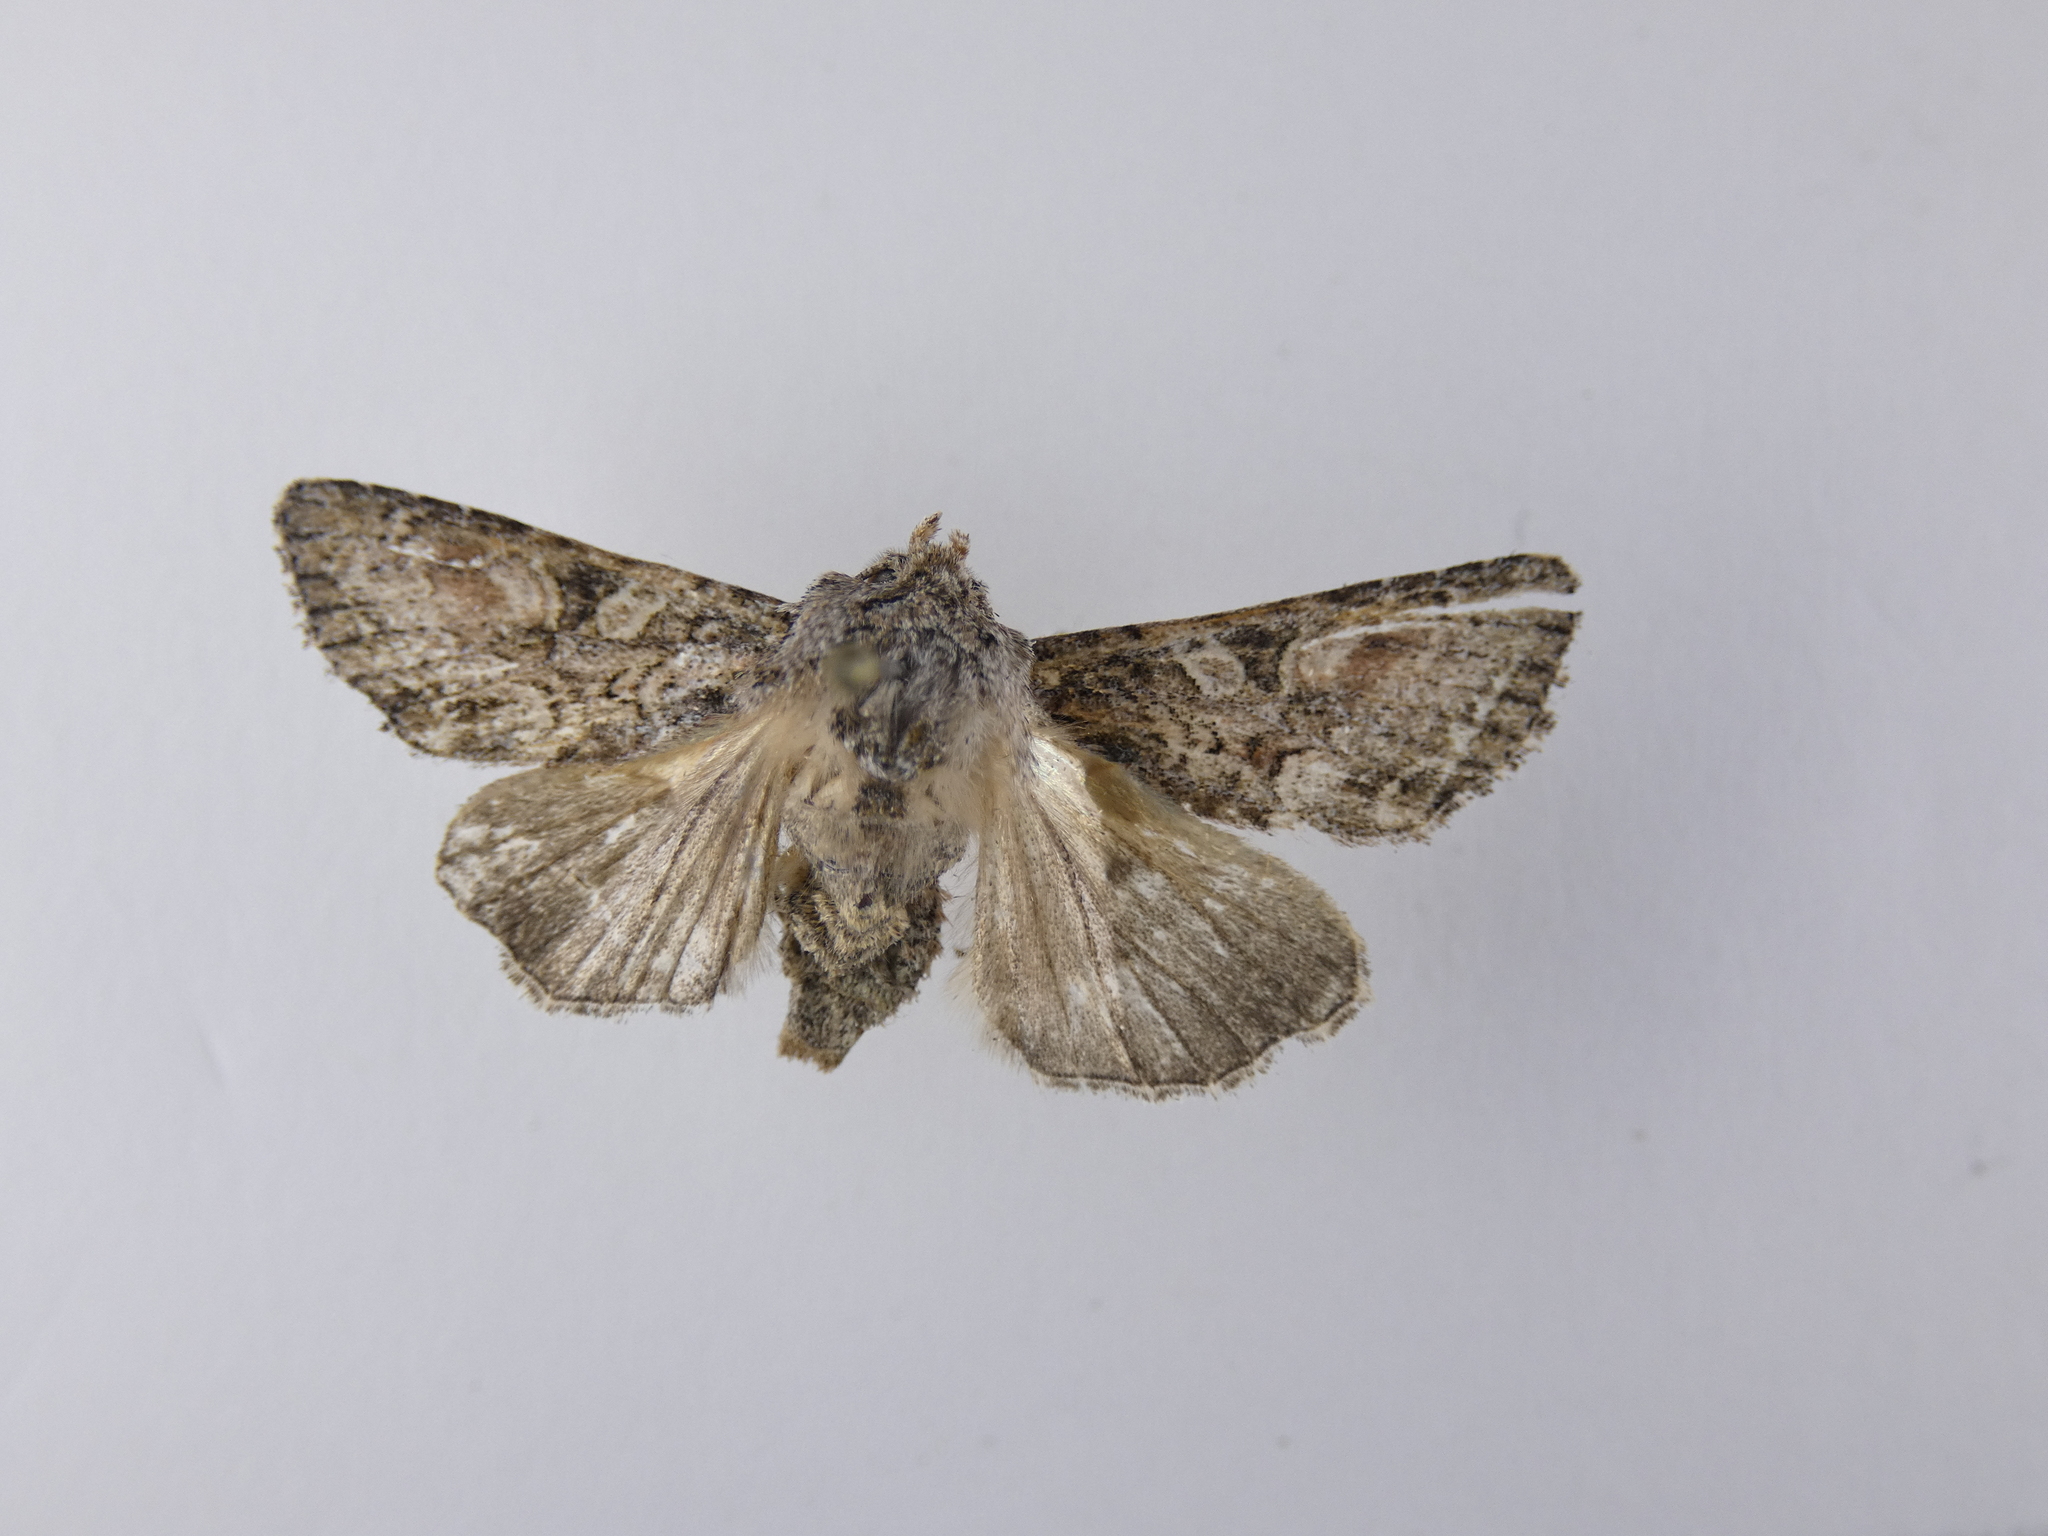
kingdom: Animalia
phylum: Arthropoda
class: Insecta
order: Lepidoptera
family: Noctuidae
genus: Ichneutica
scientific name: Ichneutica mutans
